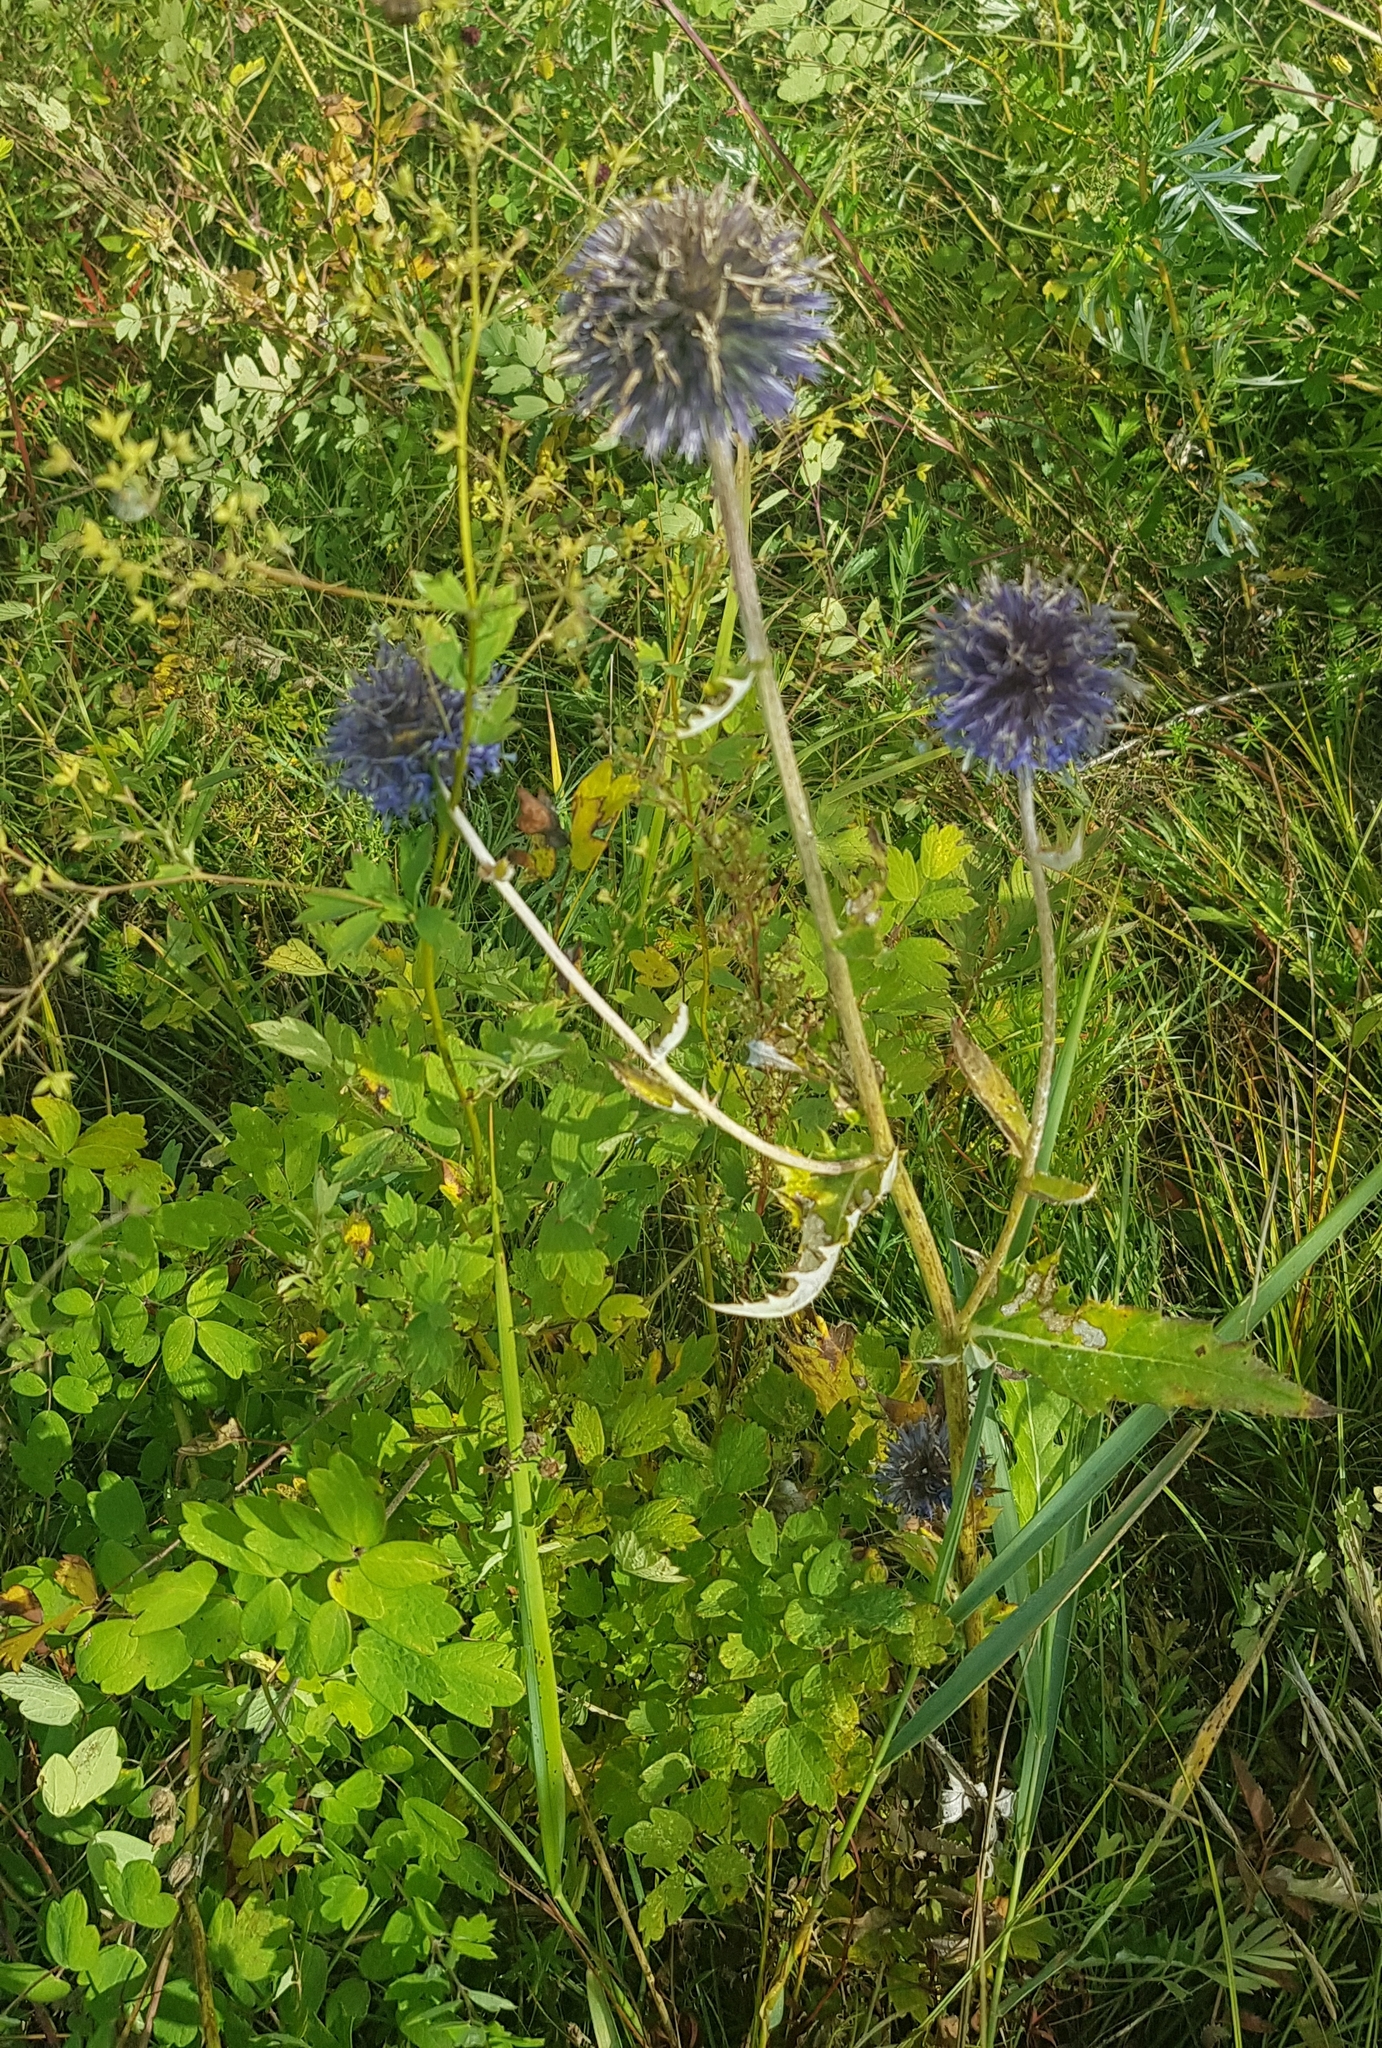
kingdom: Plantae
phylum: Tracheophyta
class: Magnoliopsida
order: Asterales
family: Asteraceae
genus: Echinops
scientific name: Echinops davuricus
